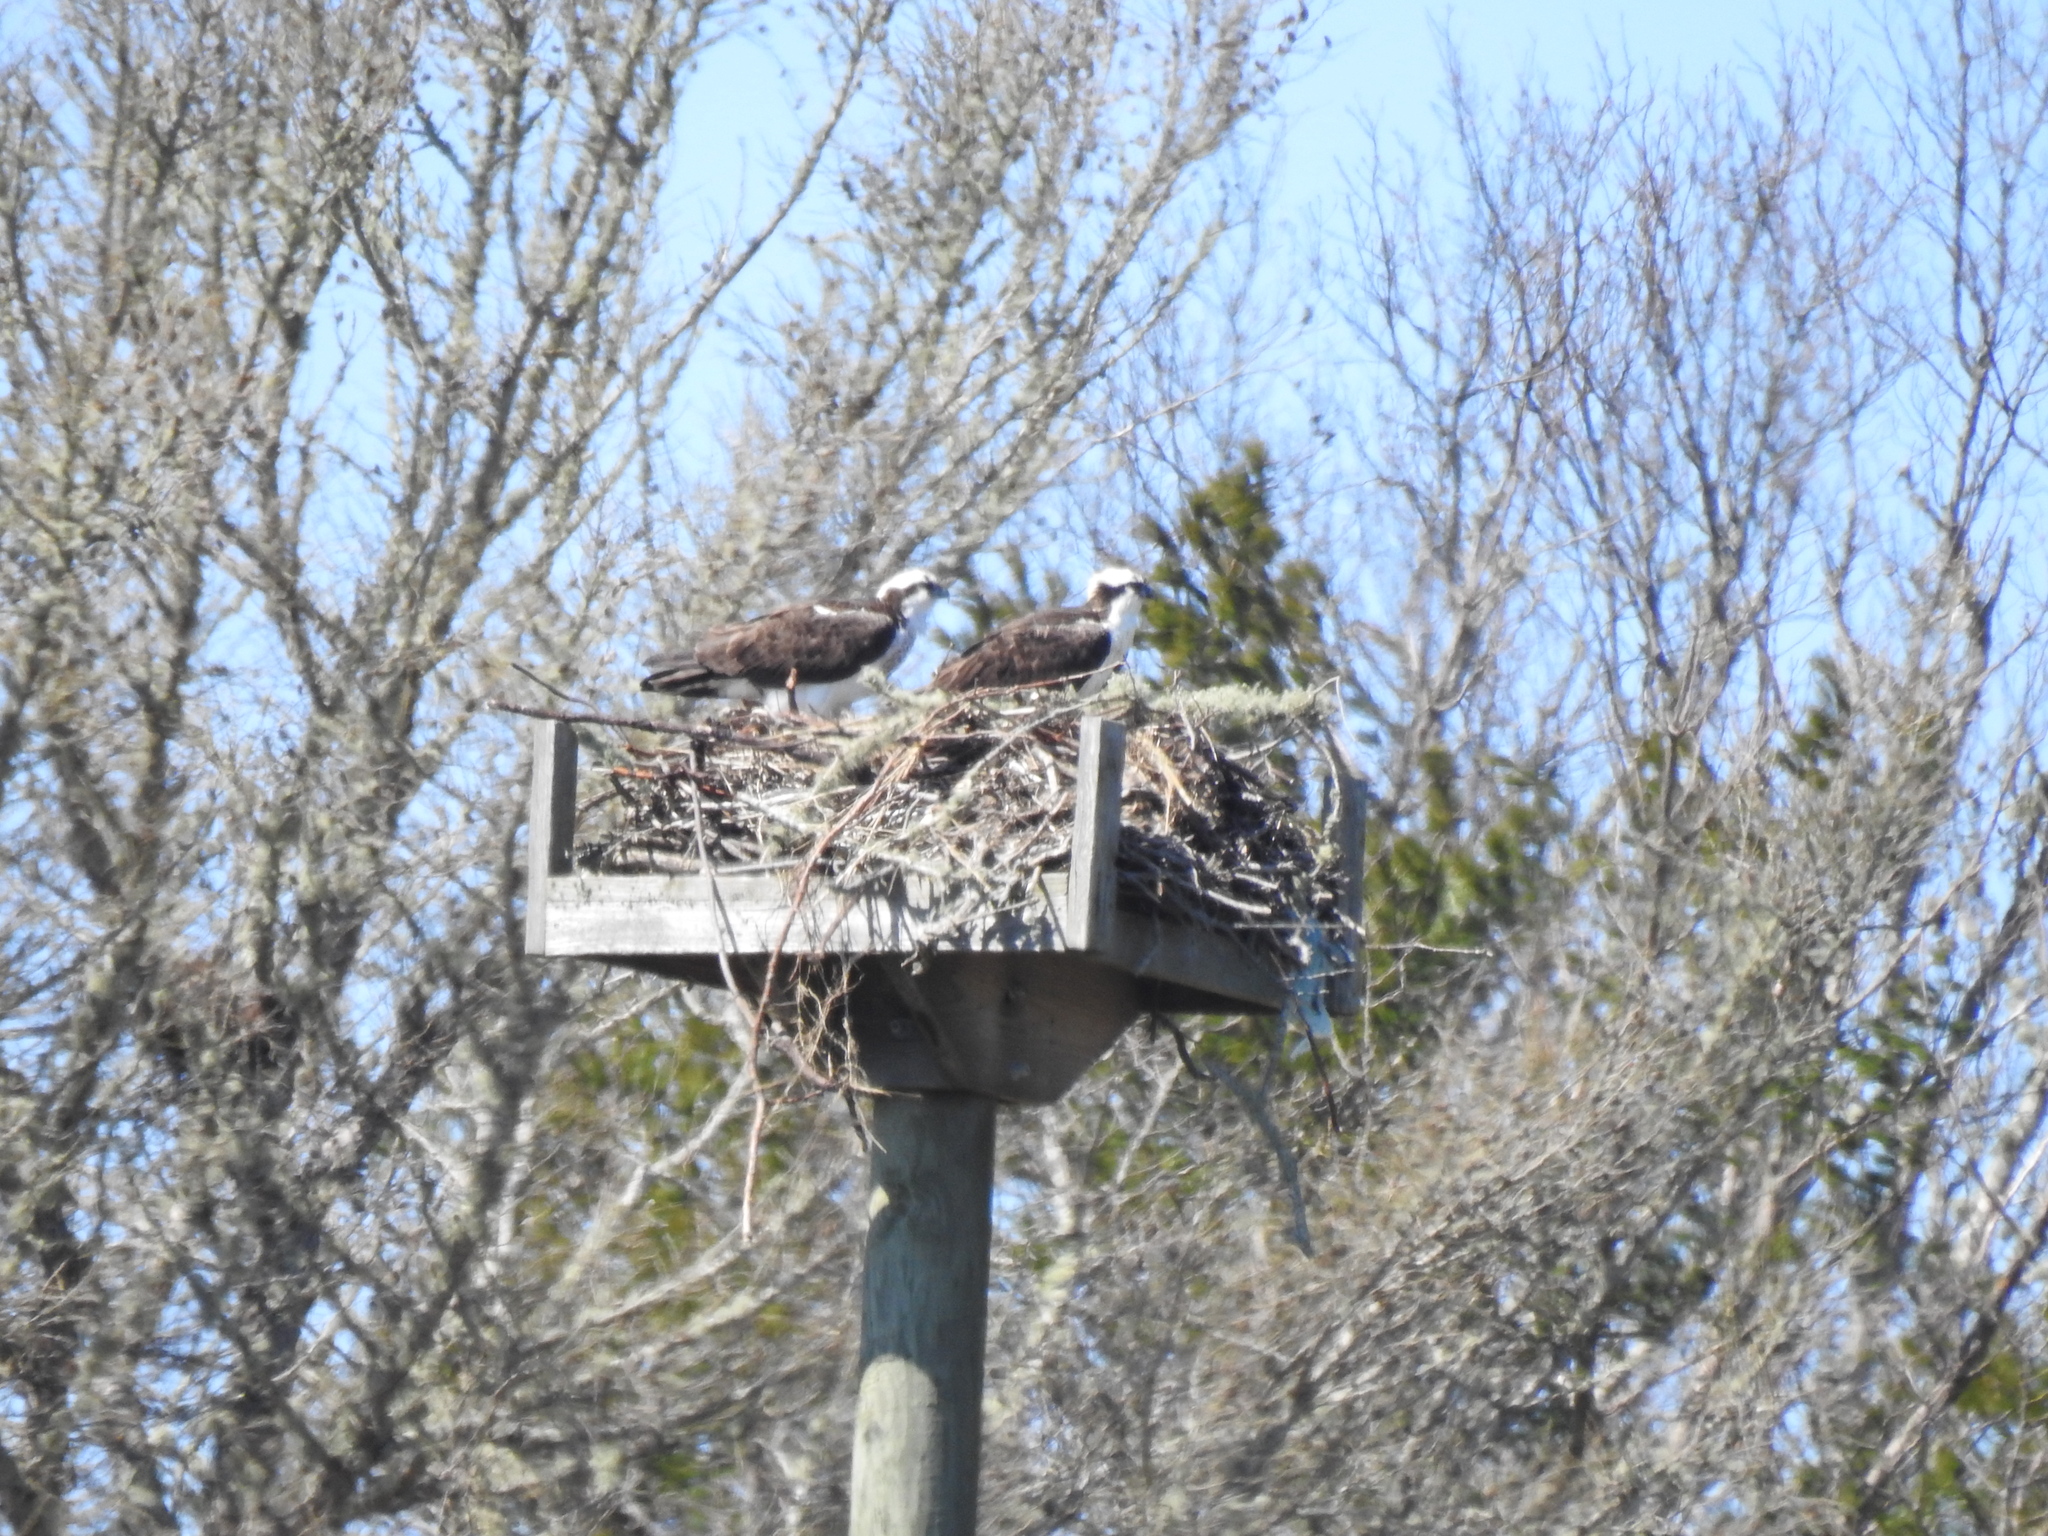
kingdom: Animalia
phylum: Chordata
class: Aves
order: Accipitriformes
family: Pandionidae
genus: Pandion
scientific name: Pandion haliaetus
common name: Osprey
